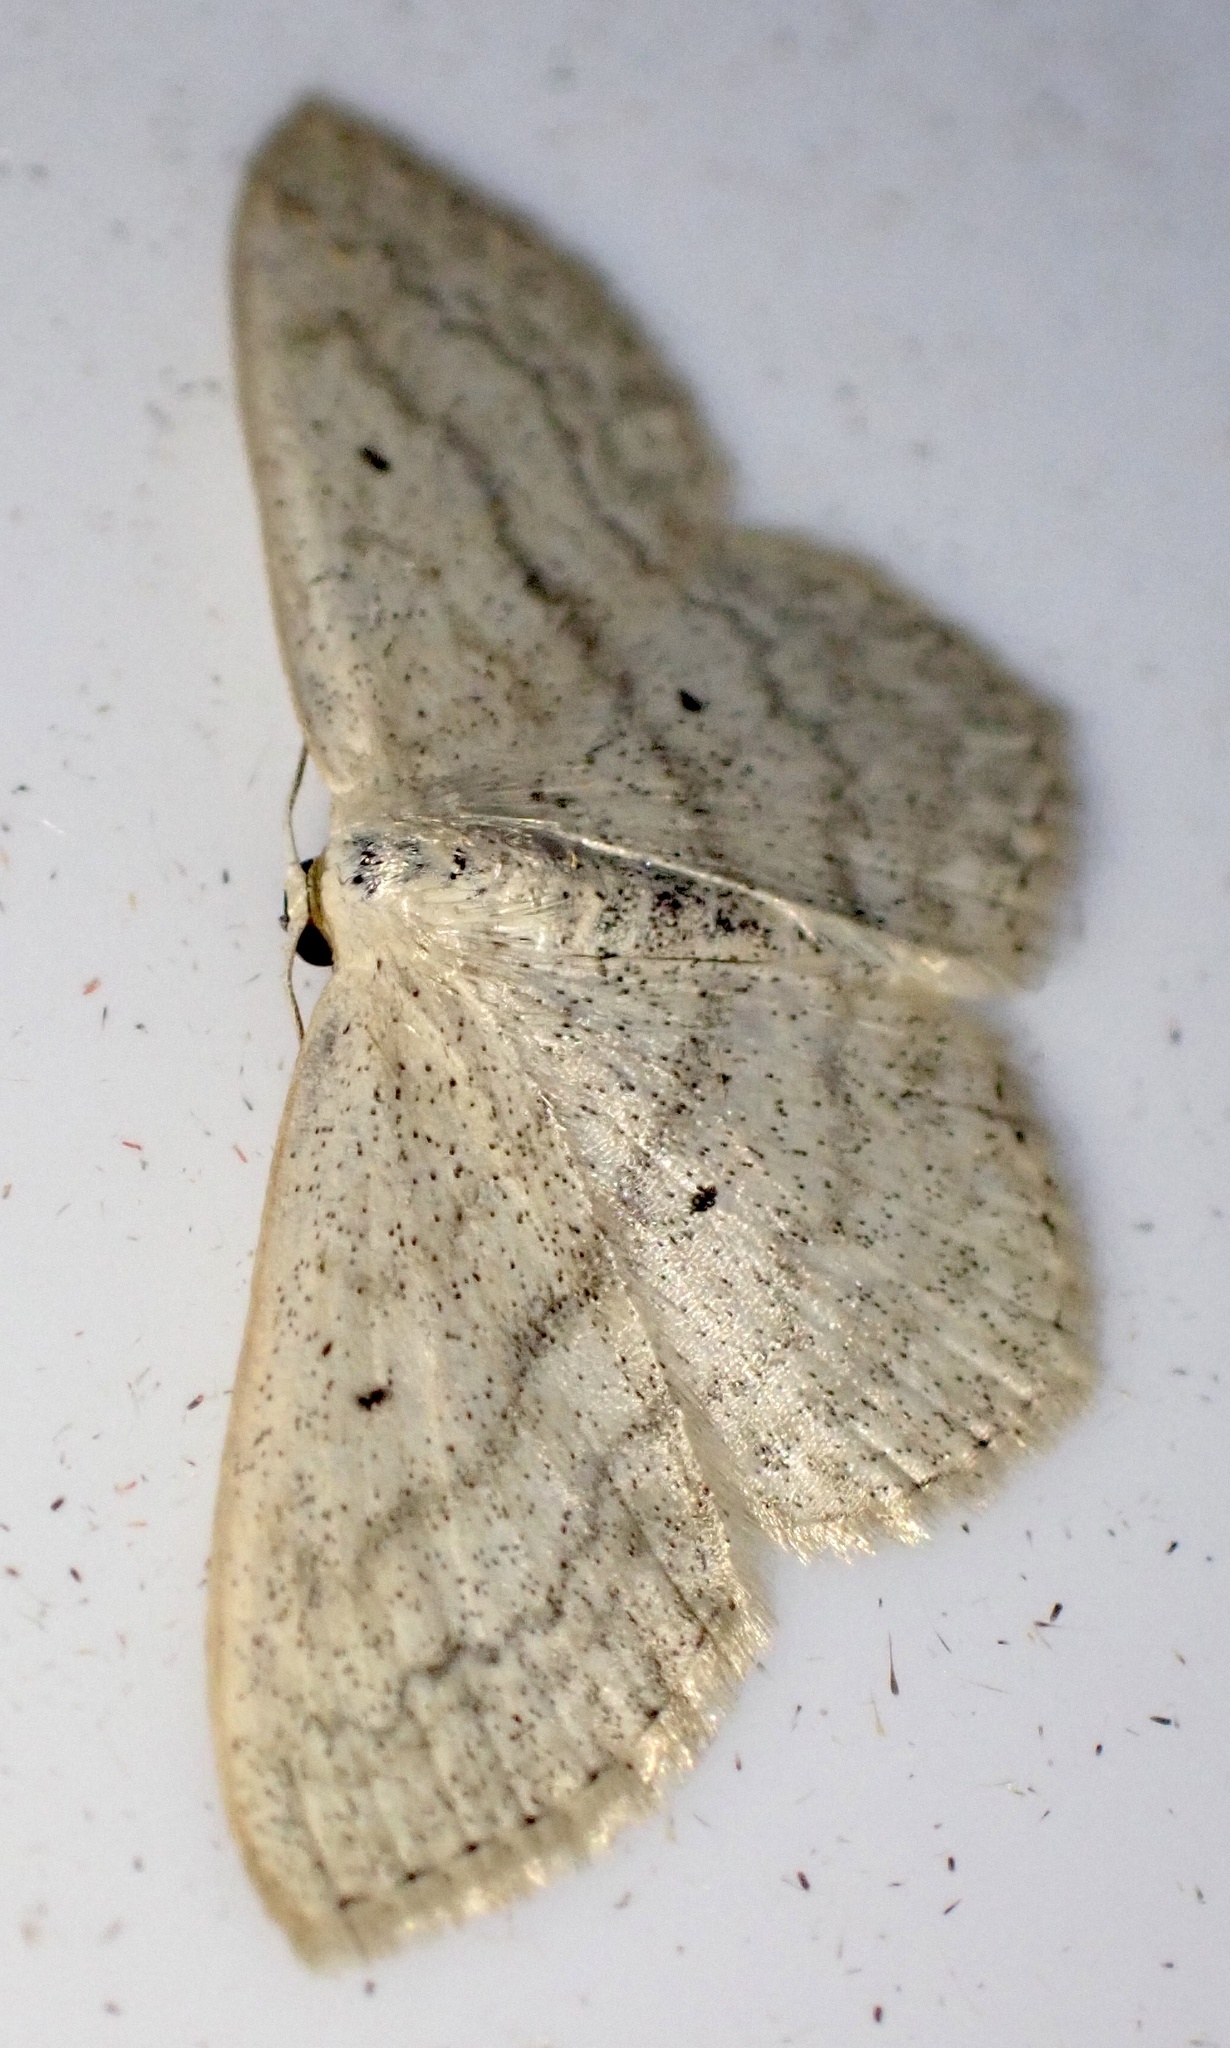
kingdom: Animalia
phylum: Arthropoda
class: Insecta
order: Lepidoptera
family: Geometridae
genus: Scopula
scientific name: Scopula nigropunctata
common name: Sub-angled wave
